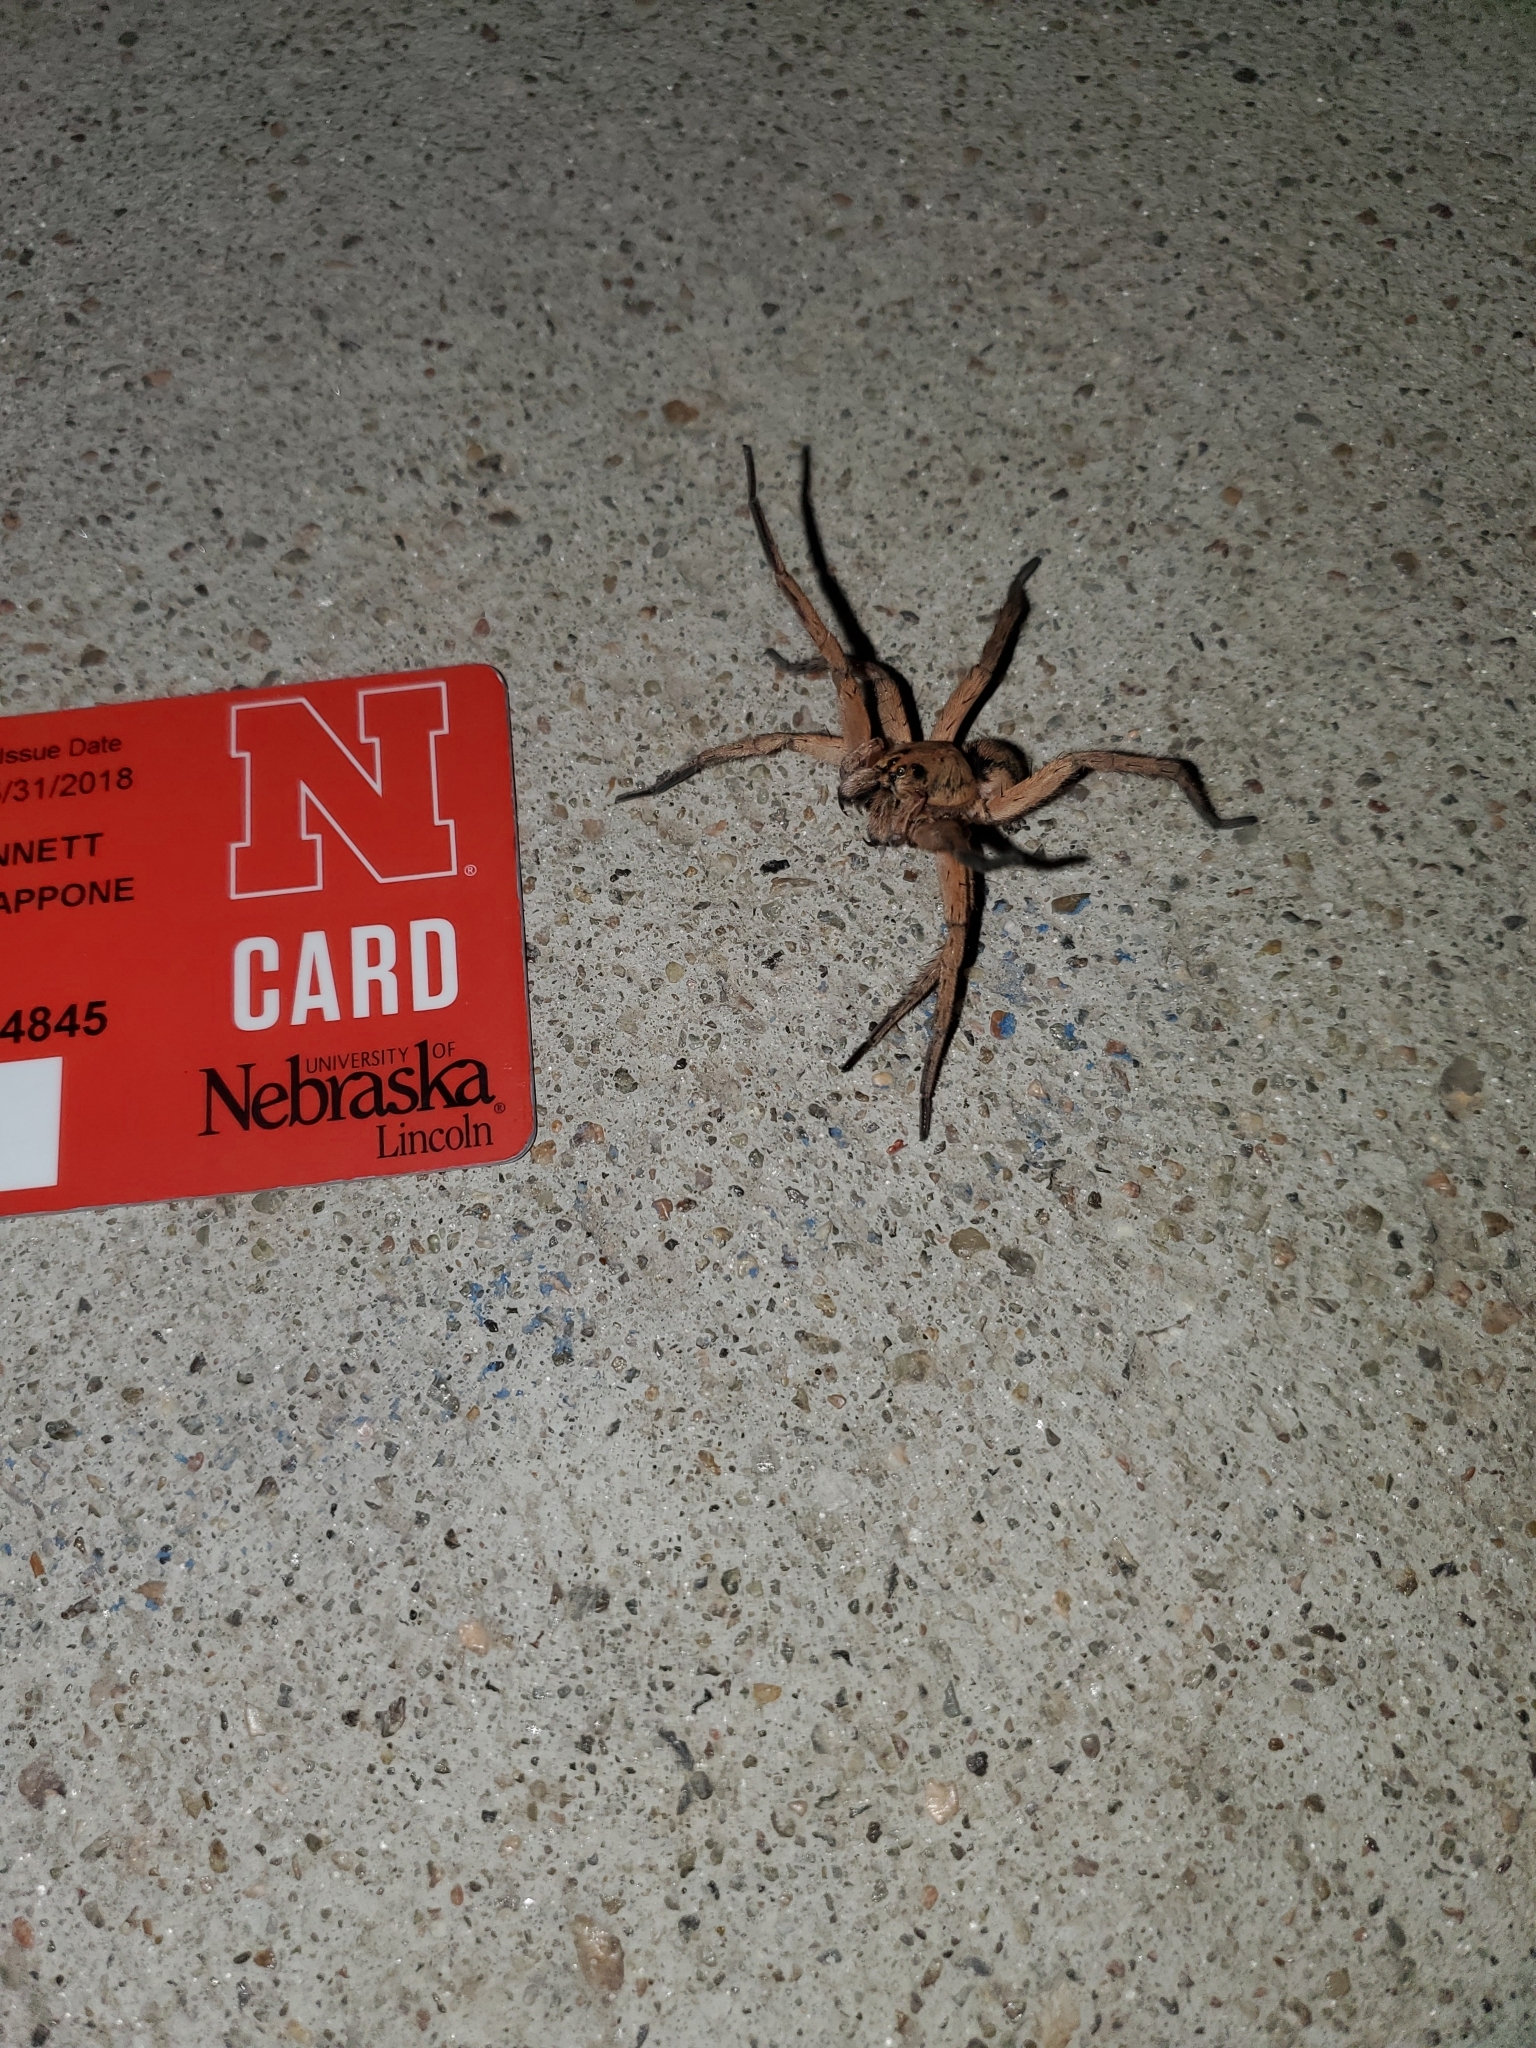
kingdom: Animalia
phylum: Arthropoda
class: Arachnida
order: Araneae
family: Lycosidae
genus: Tigrosa
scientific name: Tigrosa grandis
